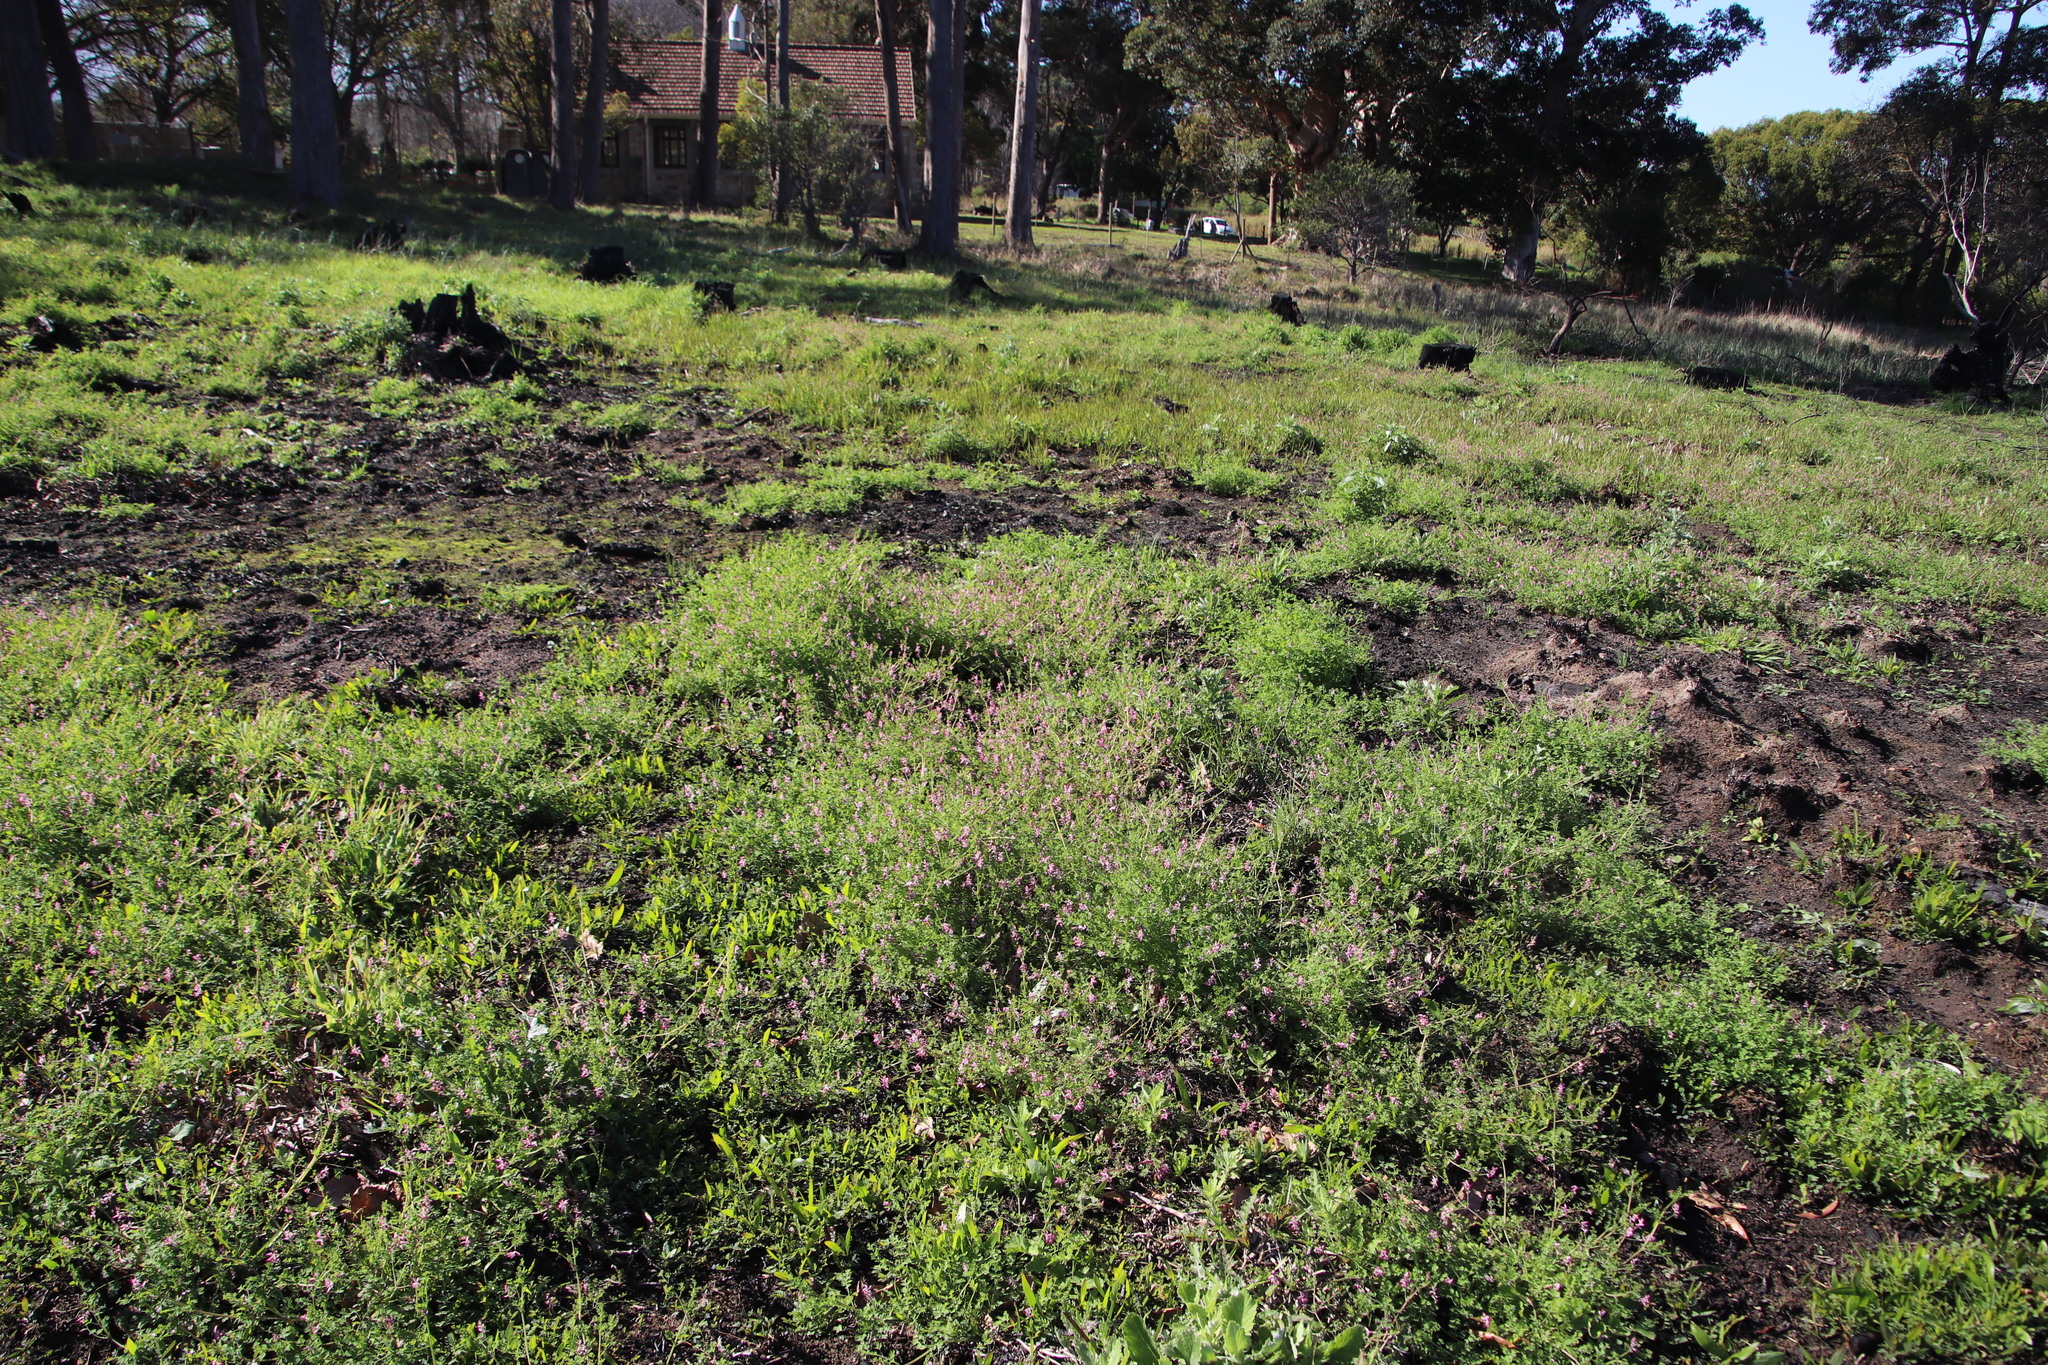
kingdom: Plantae
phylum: Tracheophyta
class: Magnoliopsida
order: Ranunculales
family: Papaveraceae
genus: Fumaria
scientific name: Fumaria muralis
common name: Common ramping-fumitory
